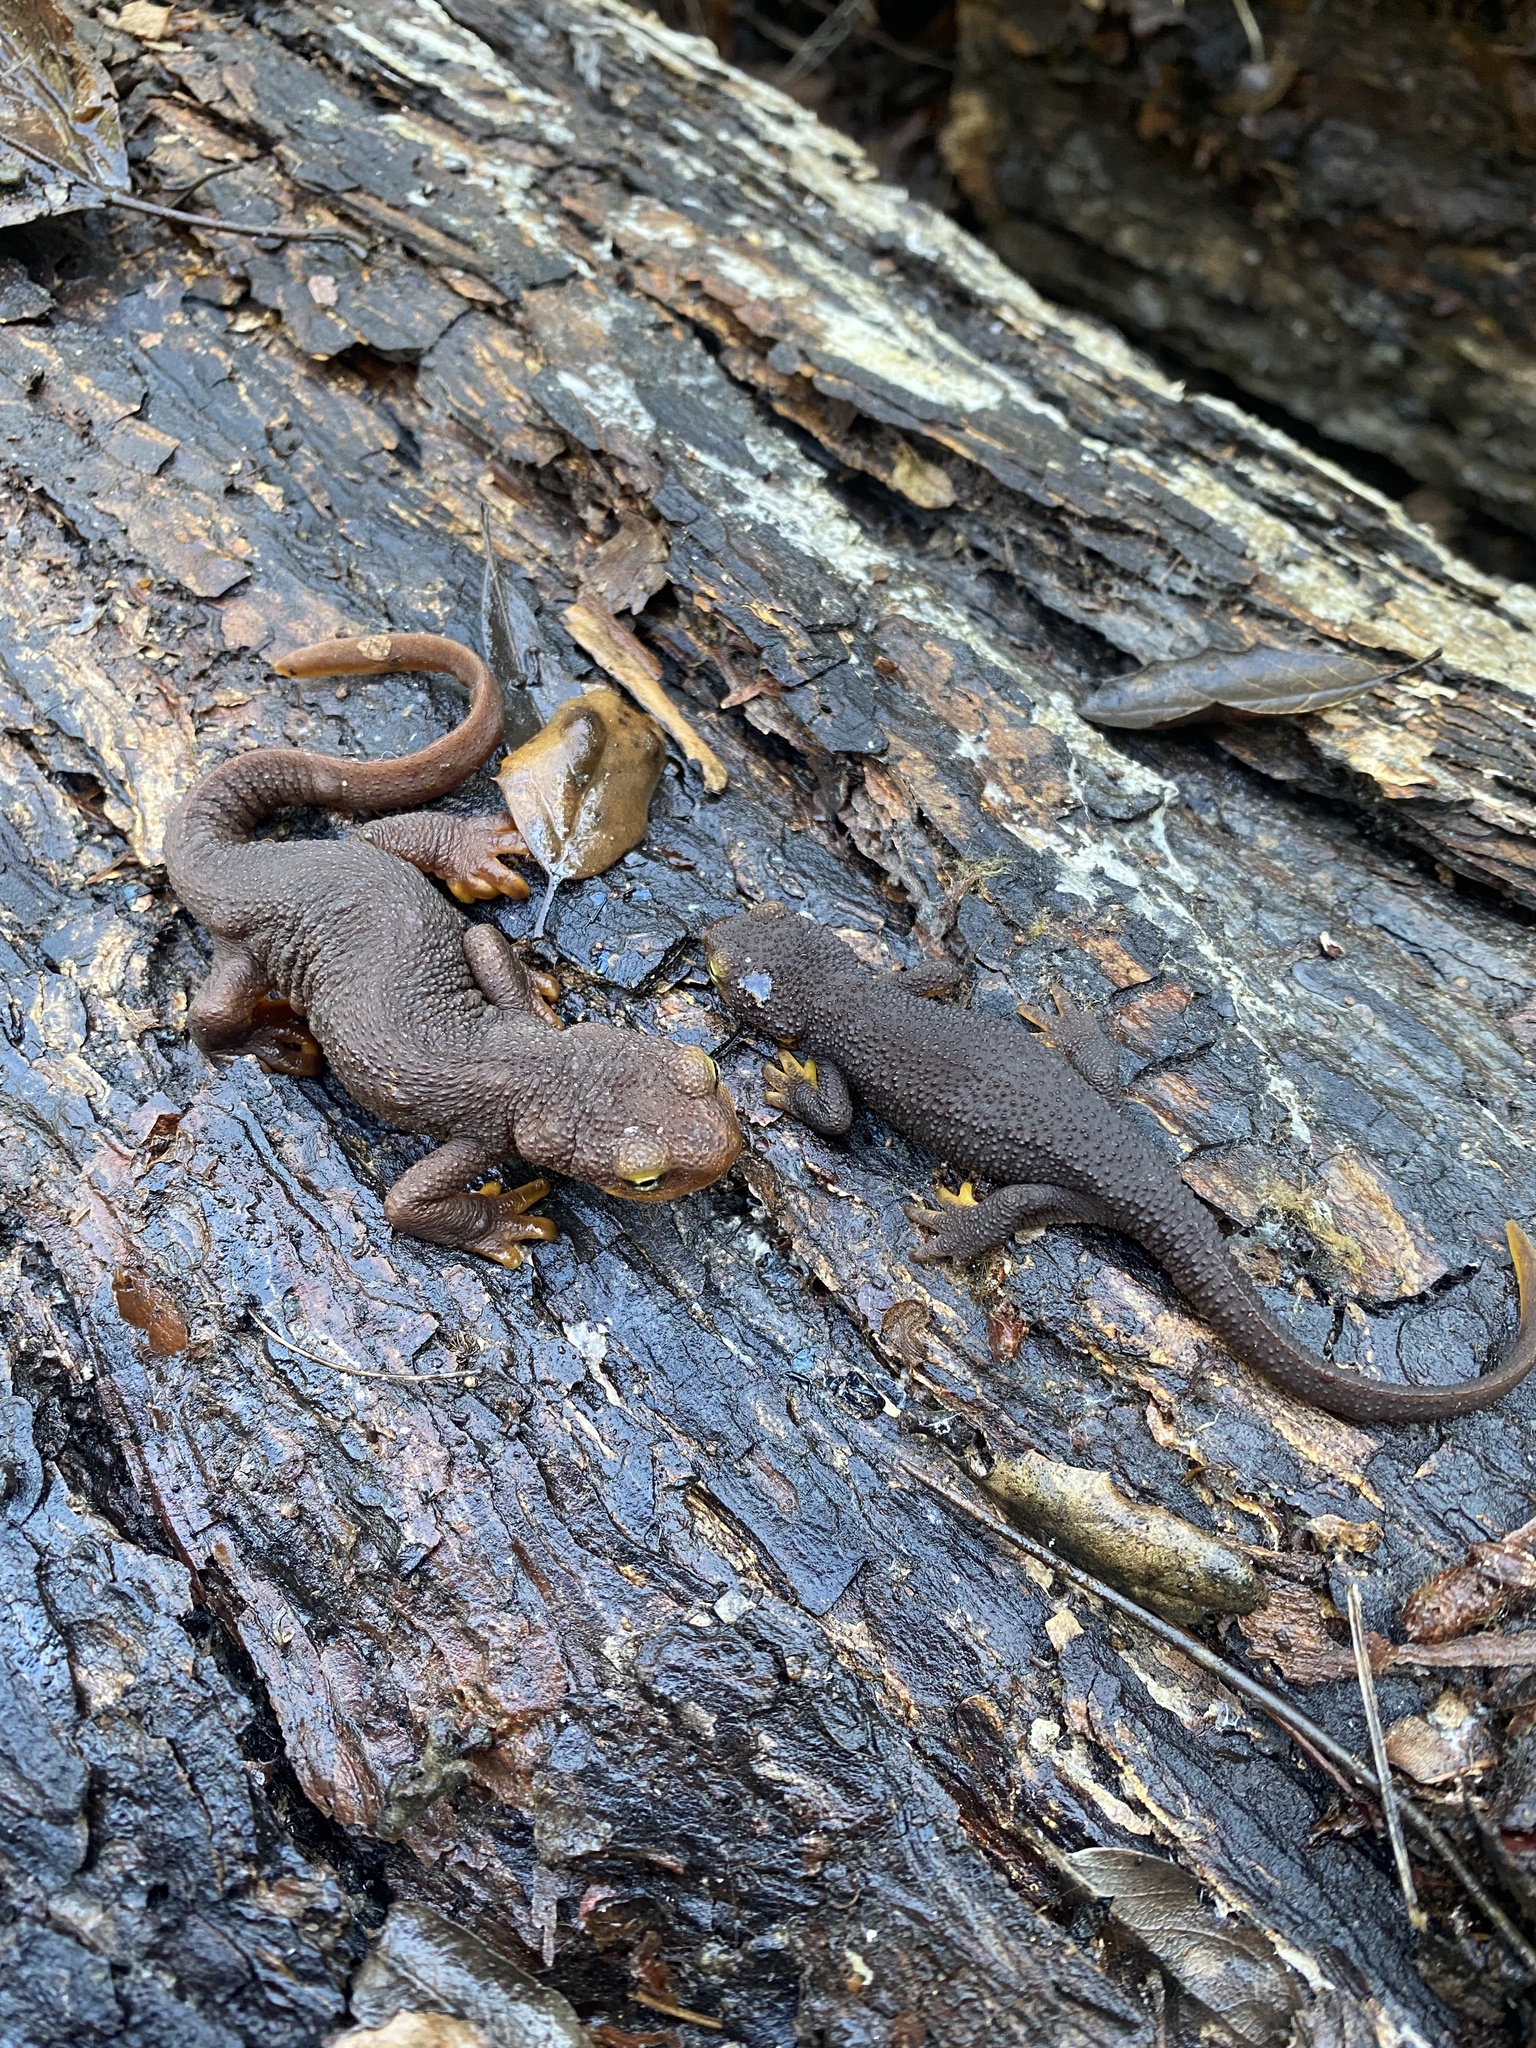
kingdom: Animalia
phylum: Chordata
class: Amphibia
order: Caudata
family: Salamandridae
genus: Taricha
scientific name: Taricha torosa
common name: California newt
